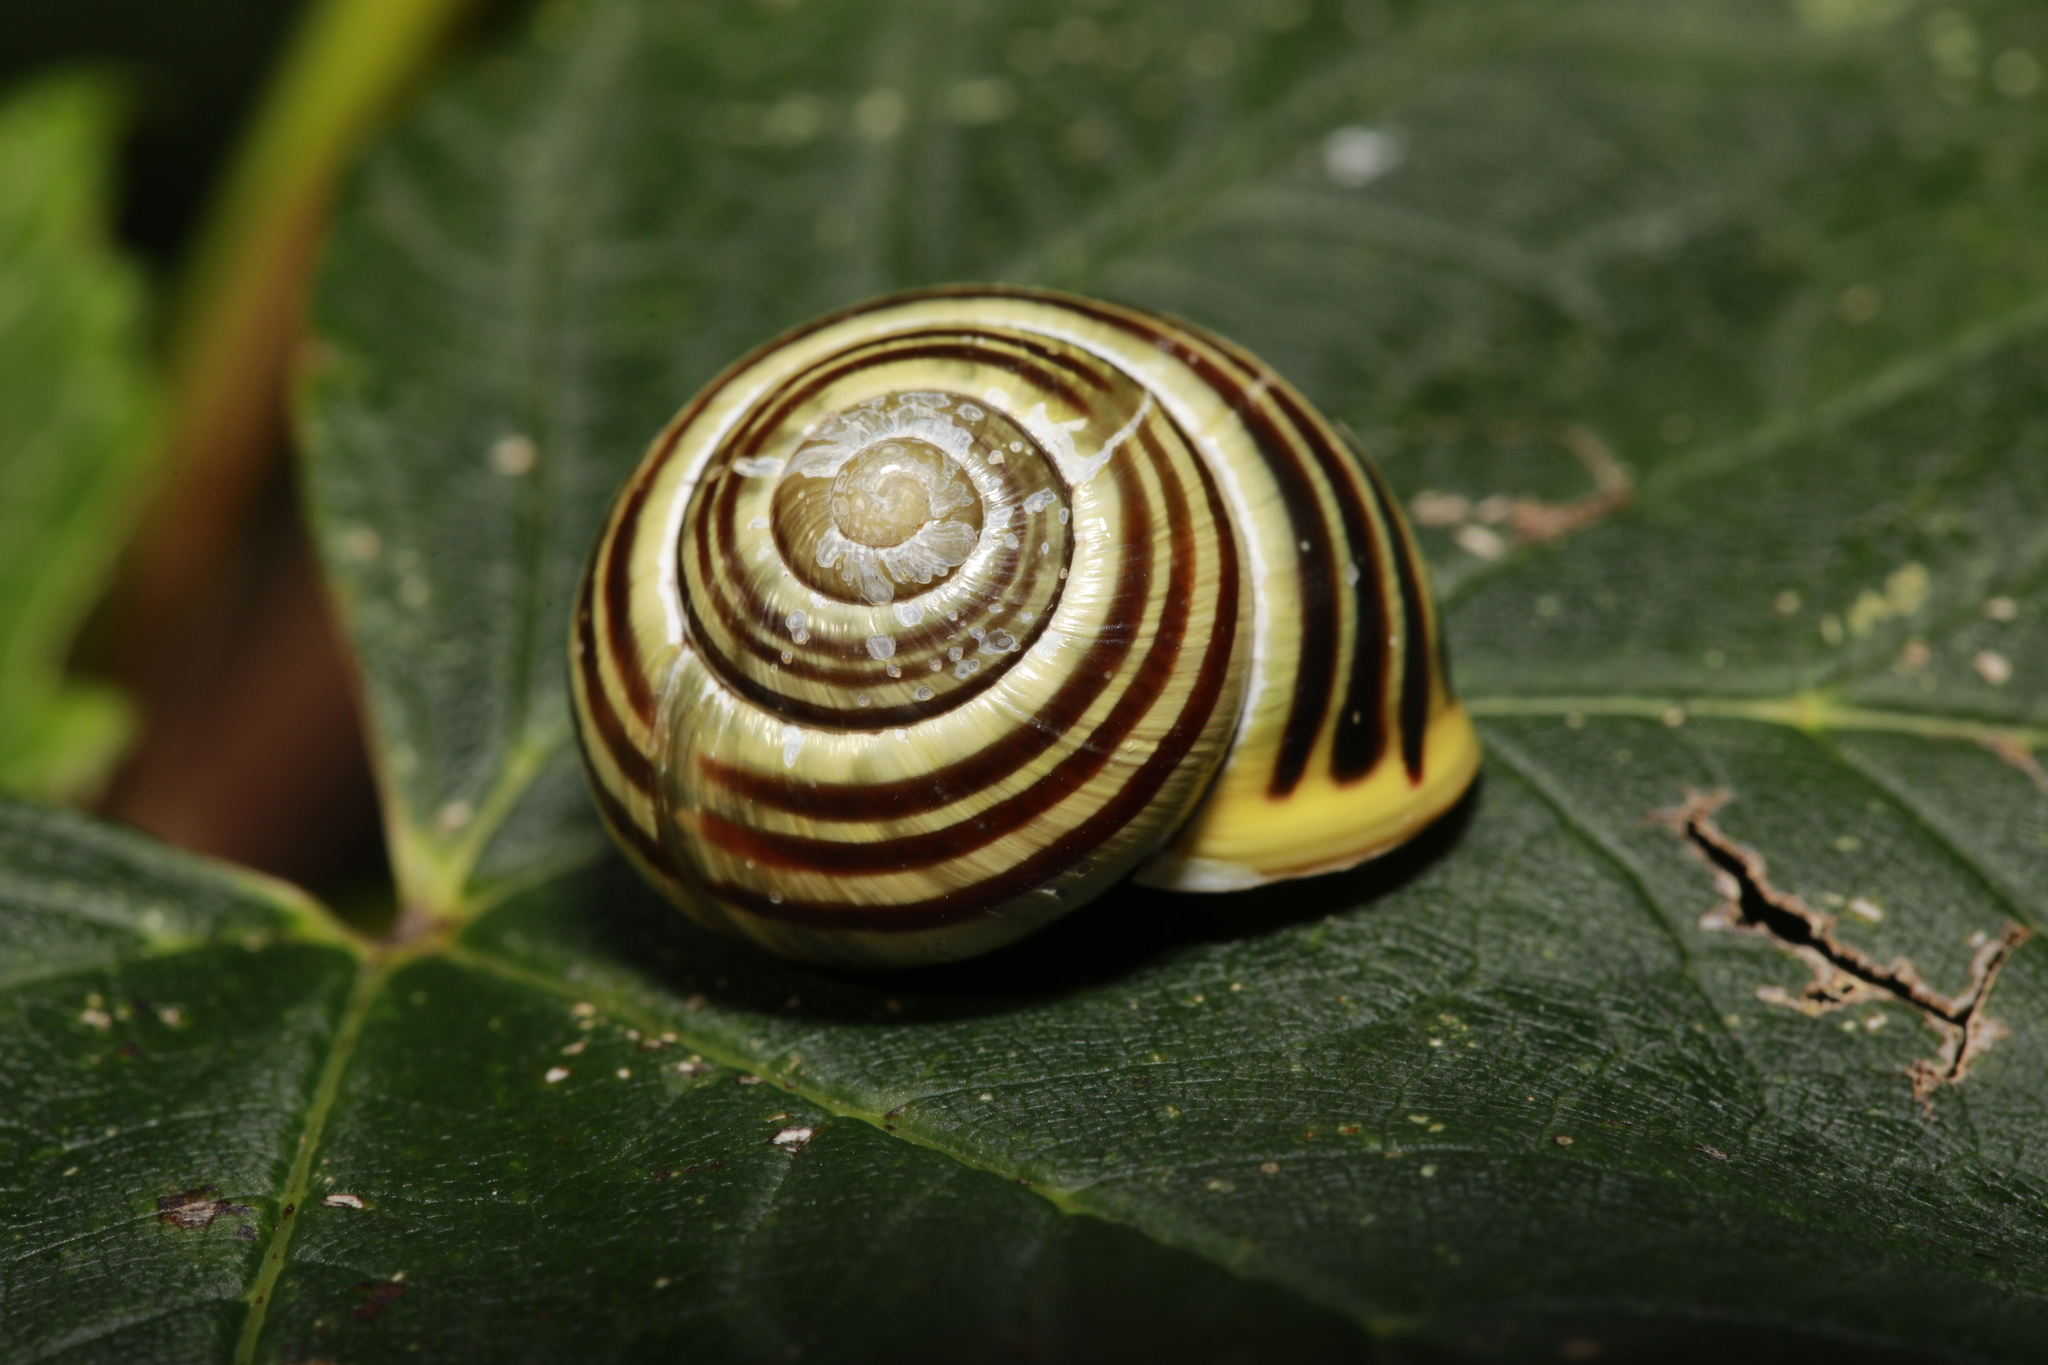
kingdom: Animalia
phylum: Mollusca
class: Gastropoda
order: Stylommatophora
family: Helicidae
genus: Cepaea
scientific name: Cepaea hortensis
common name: White-lip gardensnail
